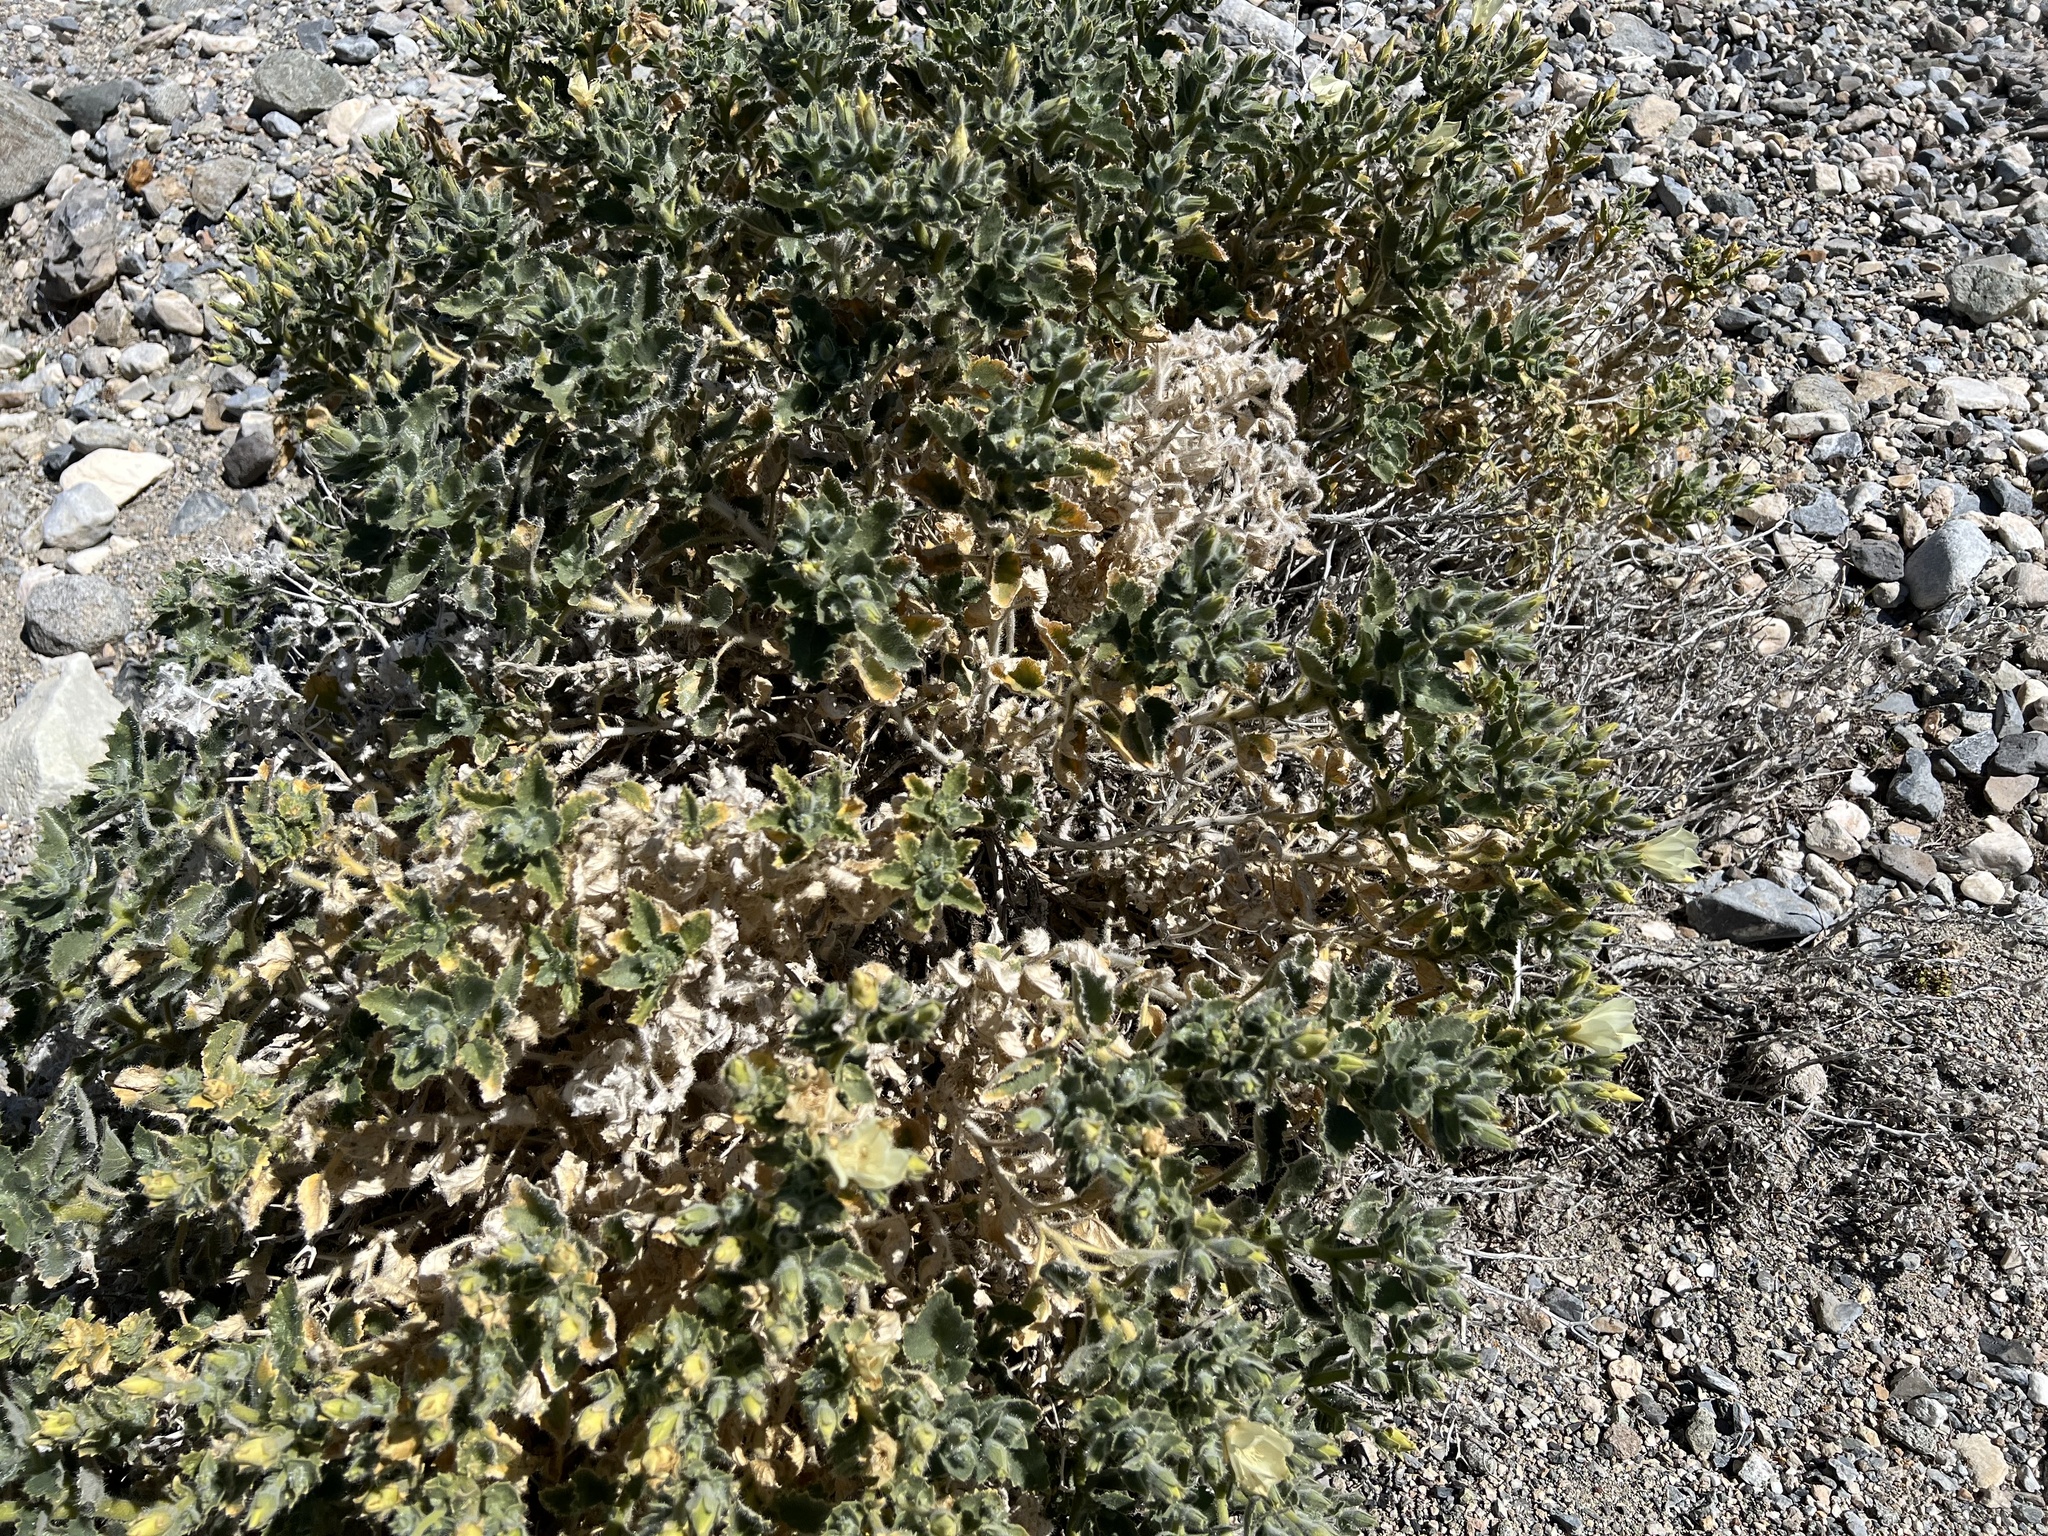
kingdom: Plantae
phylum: Tracheophyta
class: Magnoliopsida
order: Cornales
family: Loasaceae
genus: Eucnide
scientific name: Eucnide urens
